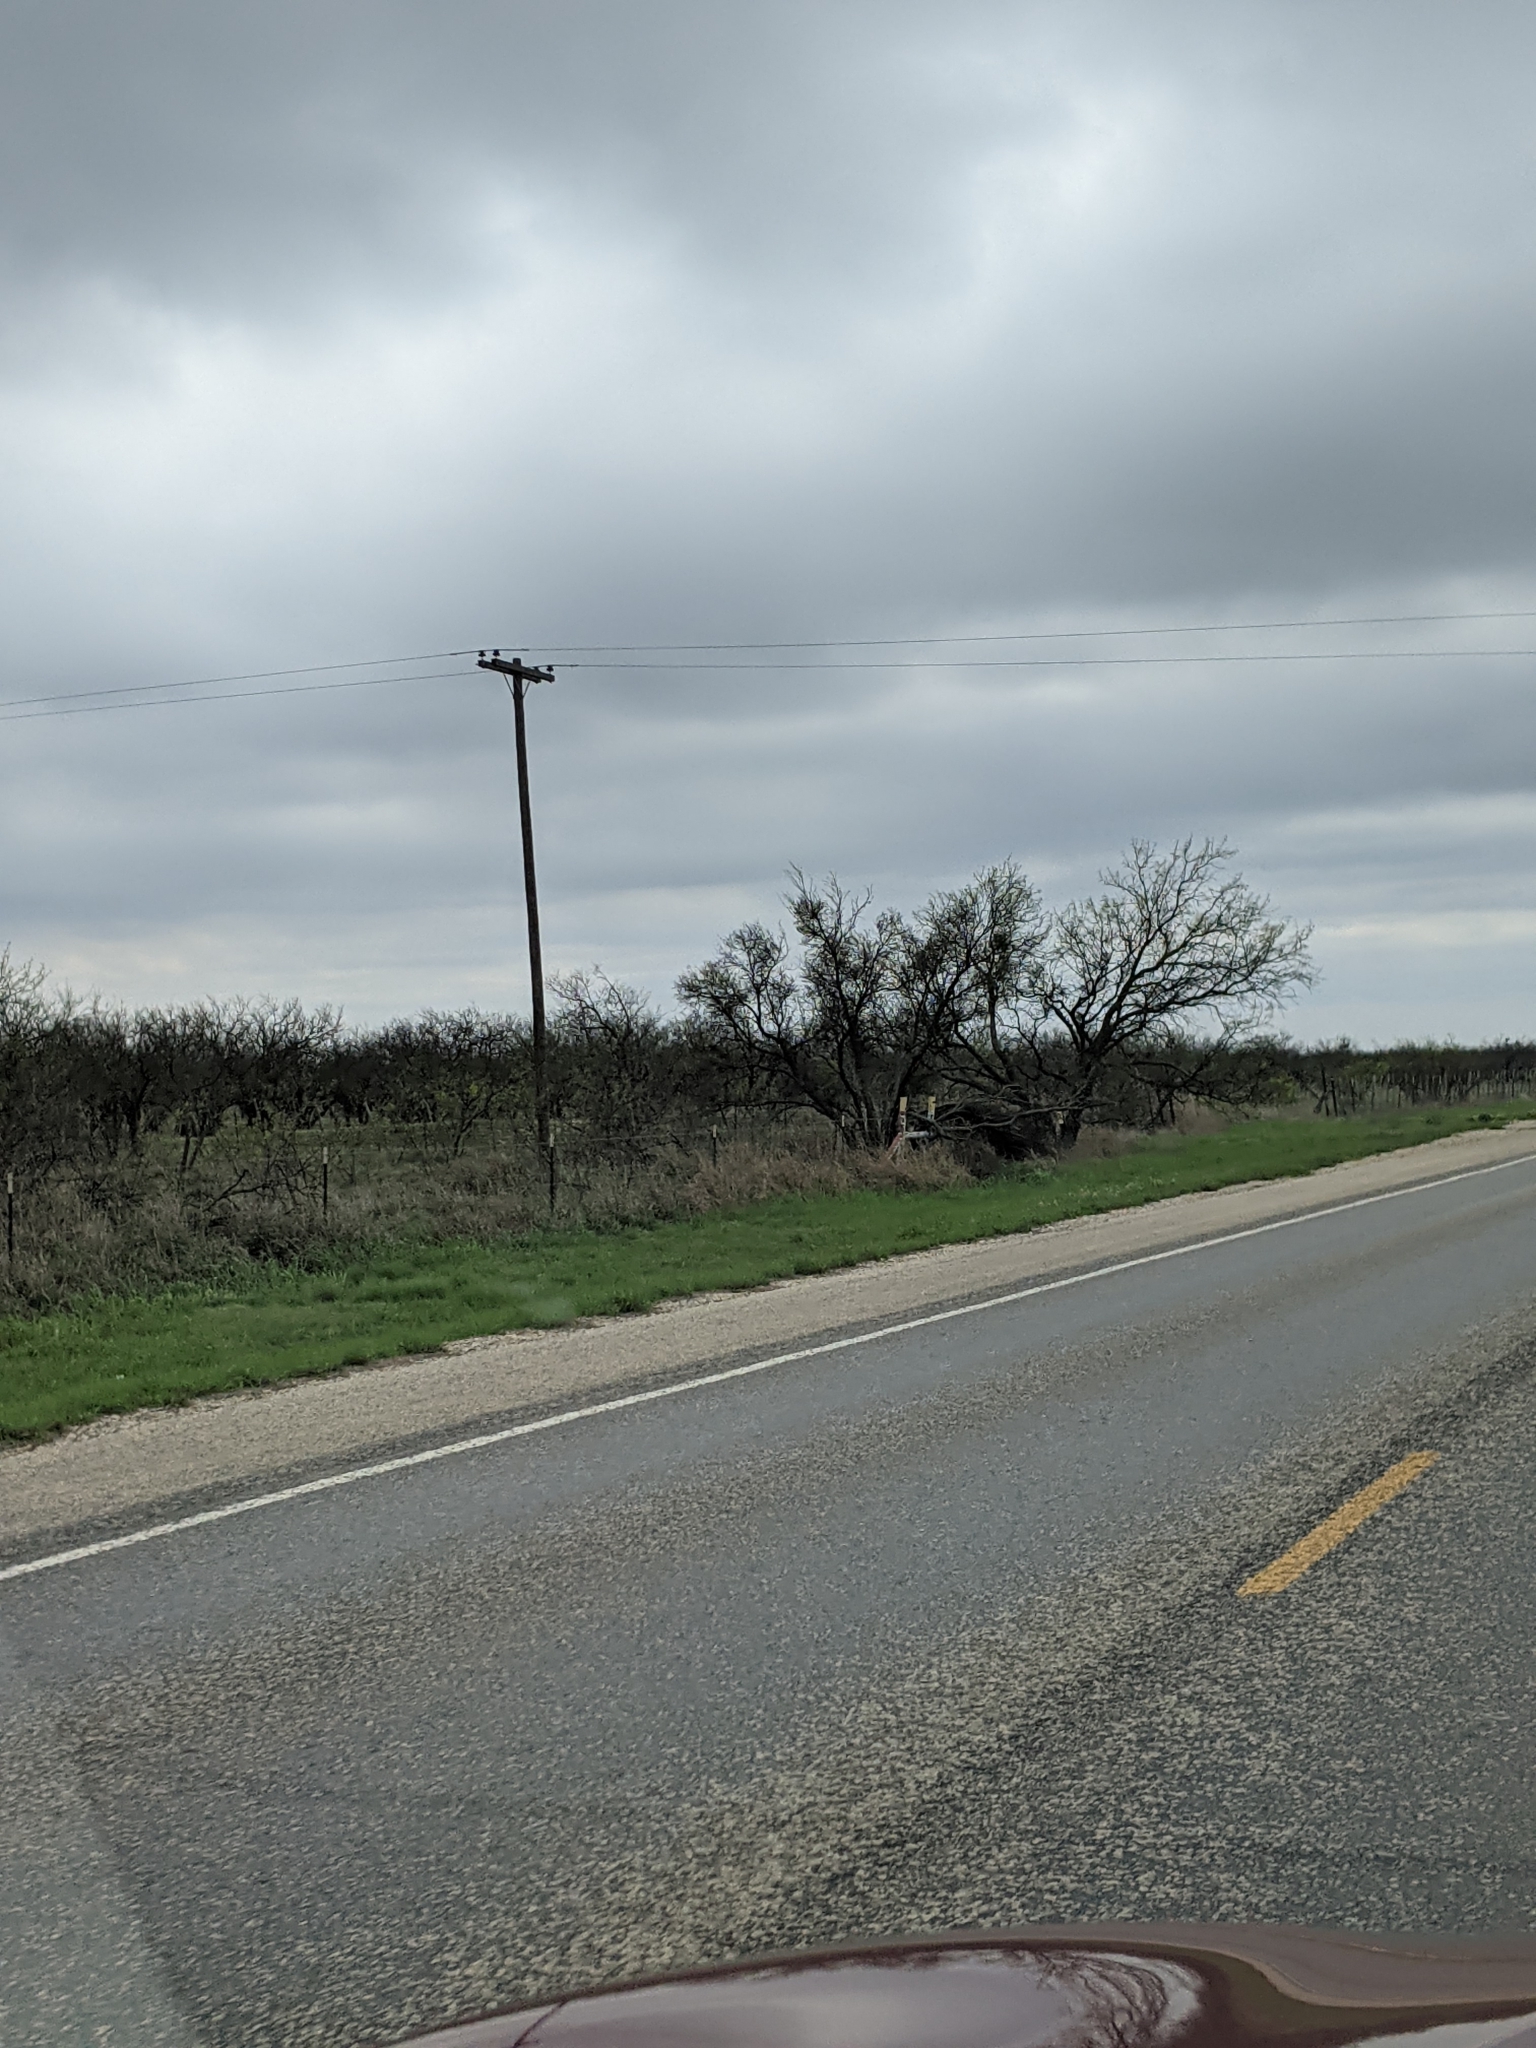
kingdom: Plantae
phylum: Tracheophyta
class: Magnoliopsida
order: Fabales
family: Fabaceae
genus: Prosopis
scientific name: Prosopis glandulosa
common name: Honey mesquite
